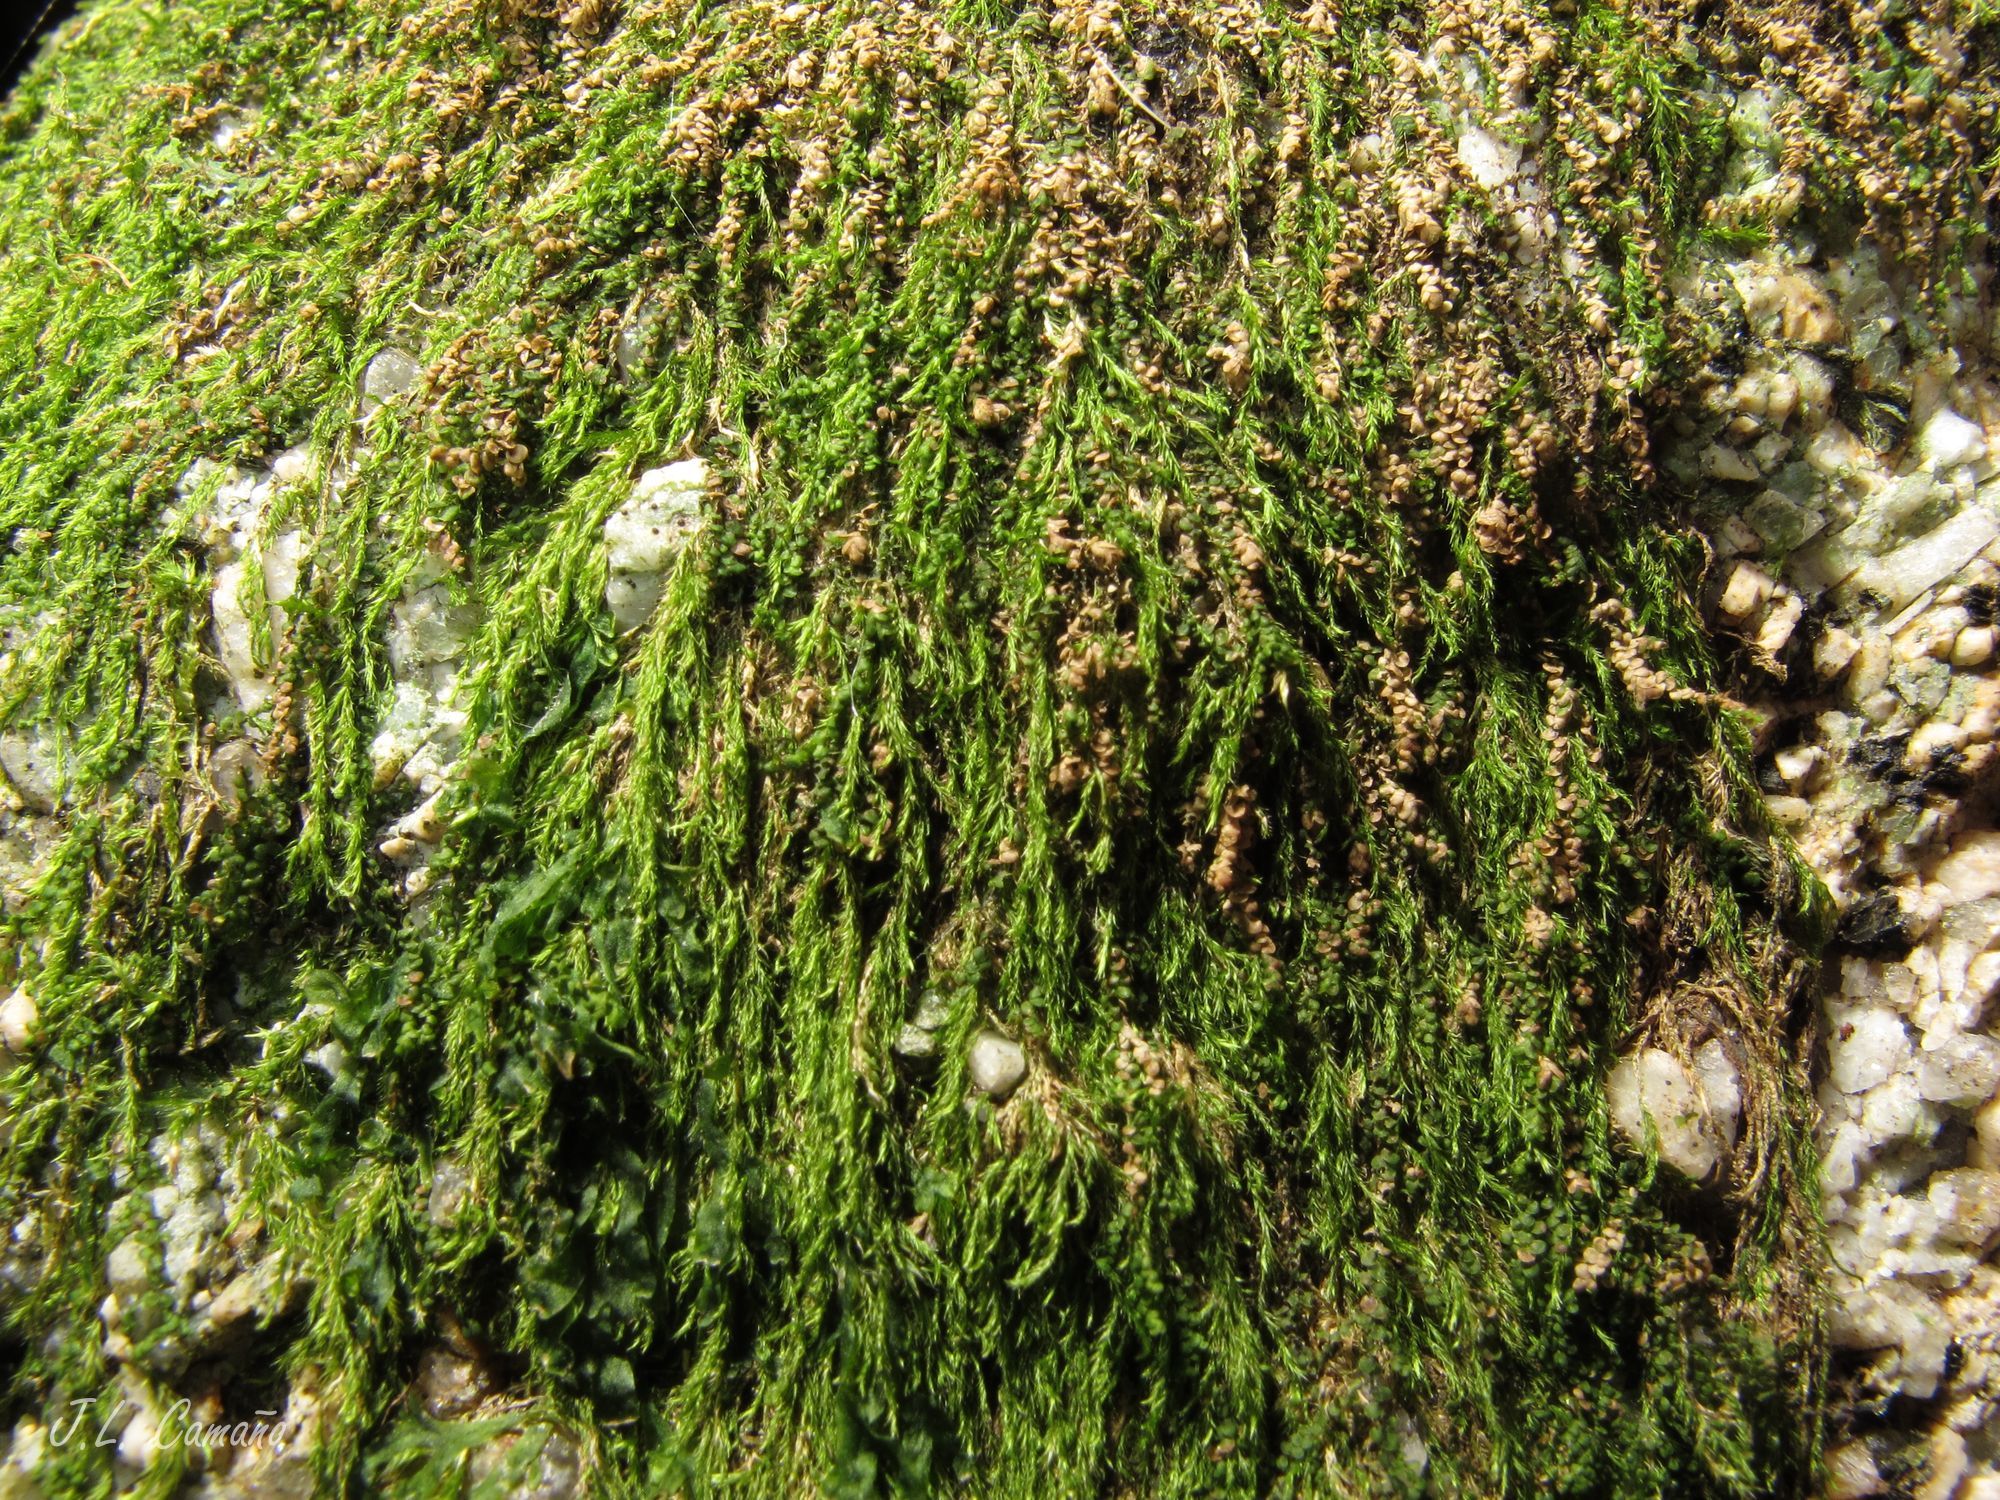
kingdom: Plantae
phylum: Bryophyta
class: Bryopsida
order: Hypnales
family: Hypnaceae
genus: Hypnum
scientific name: Hypnum cupressiforme
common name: Cypress-leaved plait-moss
